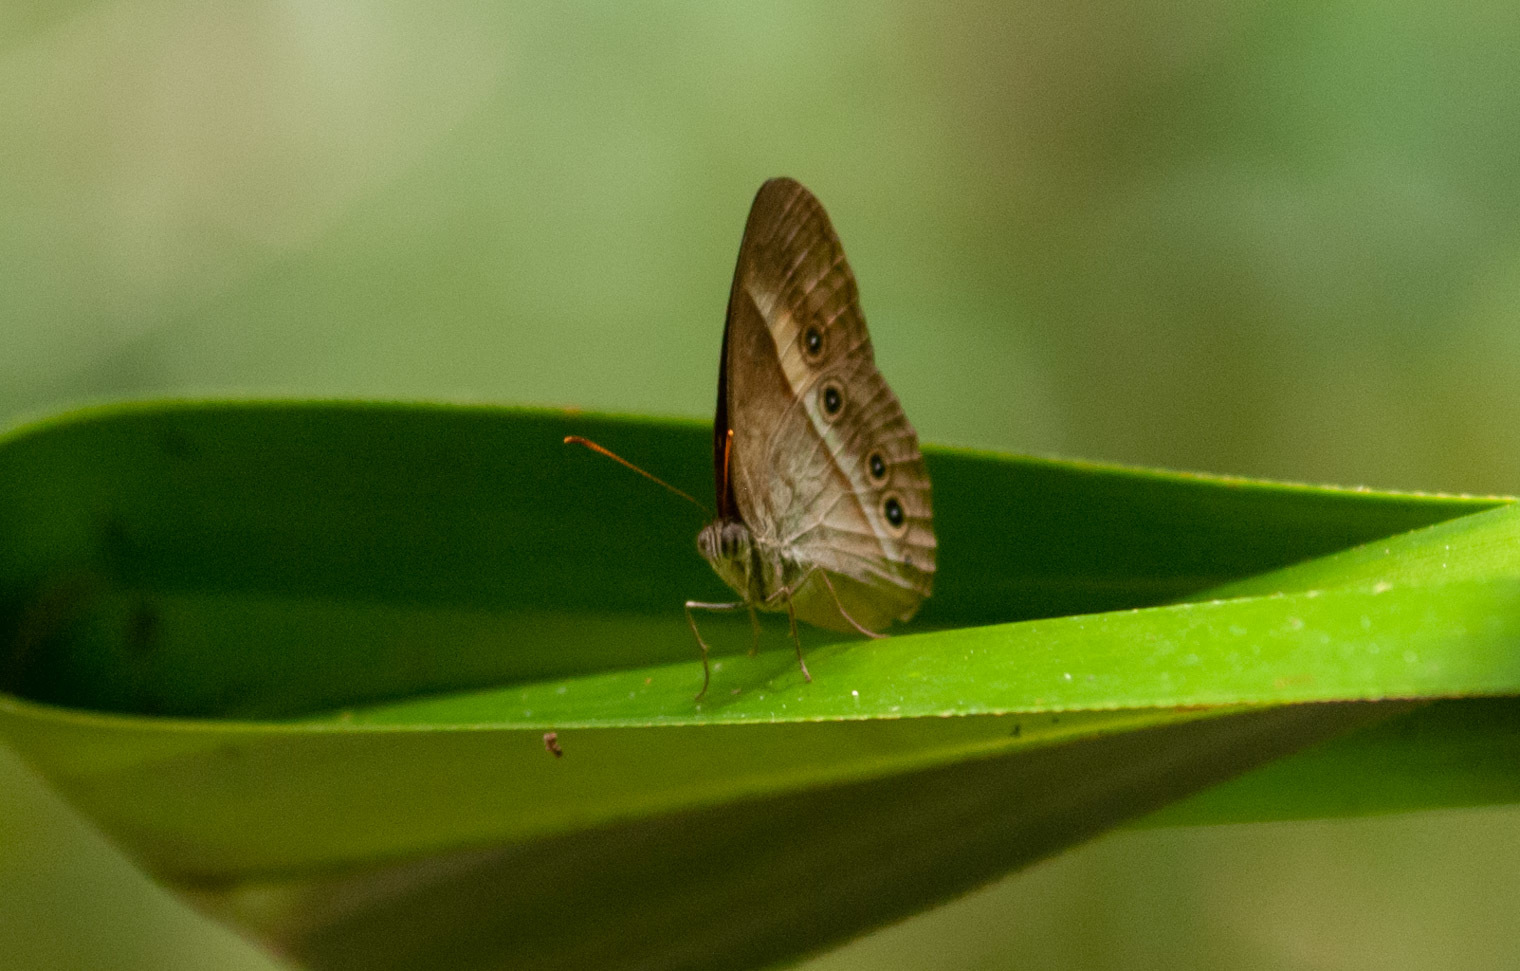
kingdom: Animalia
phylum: Arthropoda
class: Insecta
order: Lepidoptera
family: Nymphalidae
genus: Mycalesis
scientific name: Mycalesis terminus
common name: Orange bushbrown
